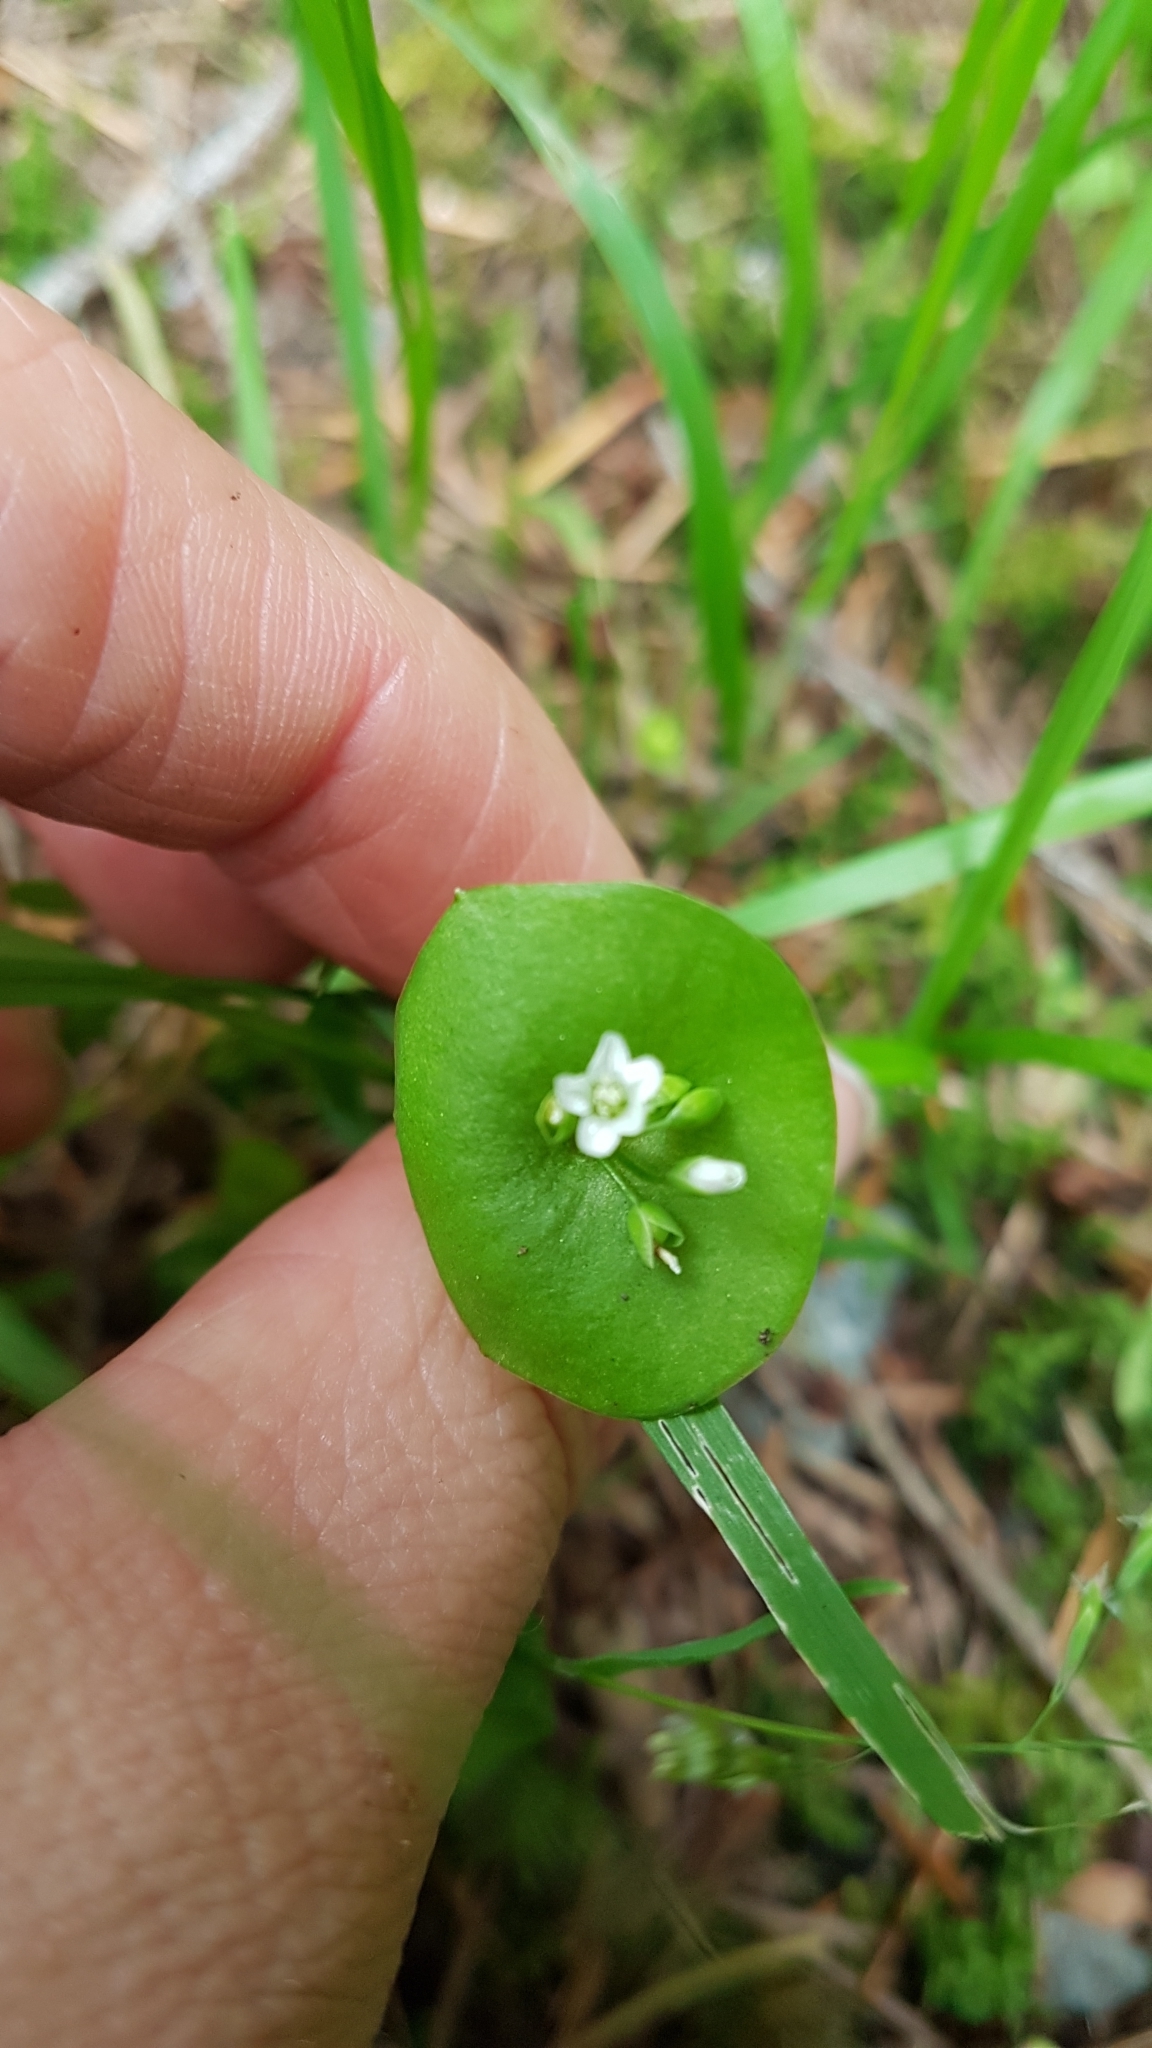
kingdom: Plantae
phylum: Tracheophyta
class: Magnoliopsida
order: Caryophyllales
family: Montiaceae
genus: Claytonia
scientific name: Claytonia perfoliata
